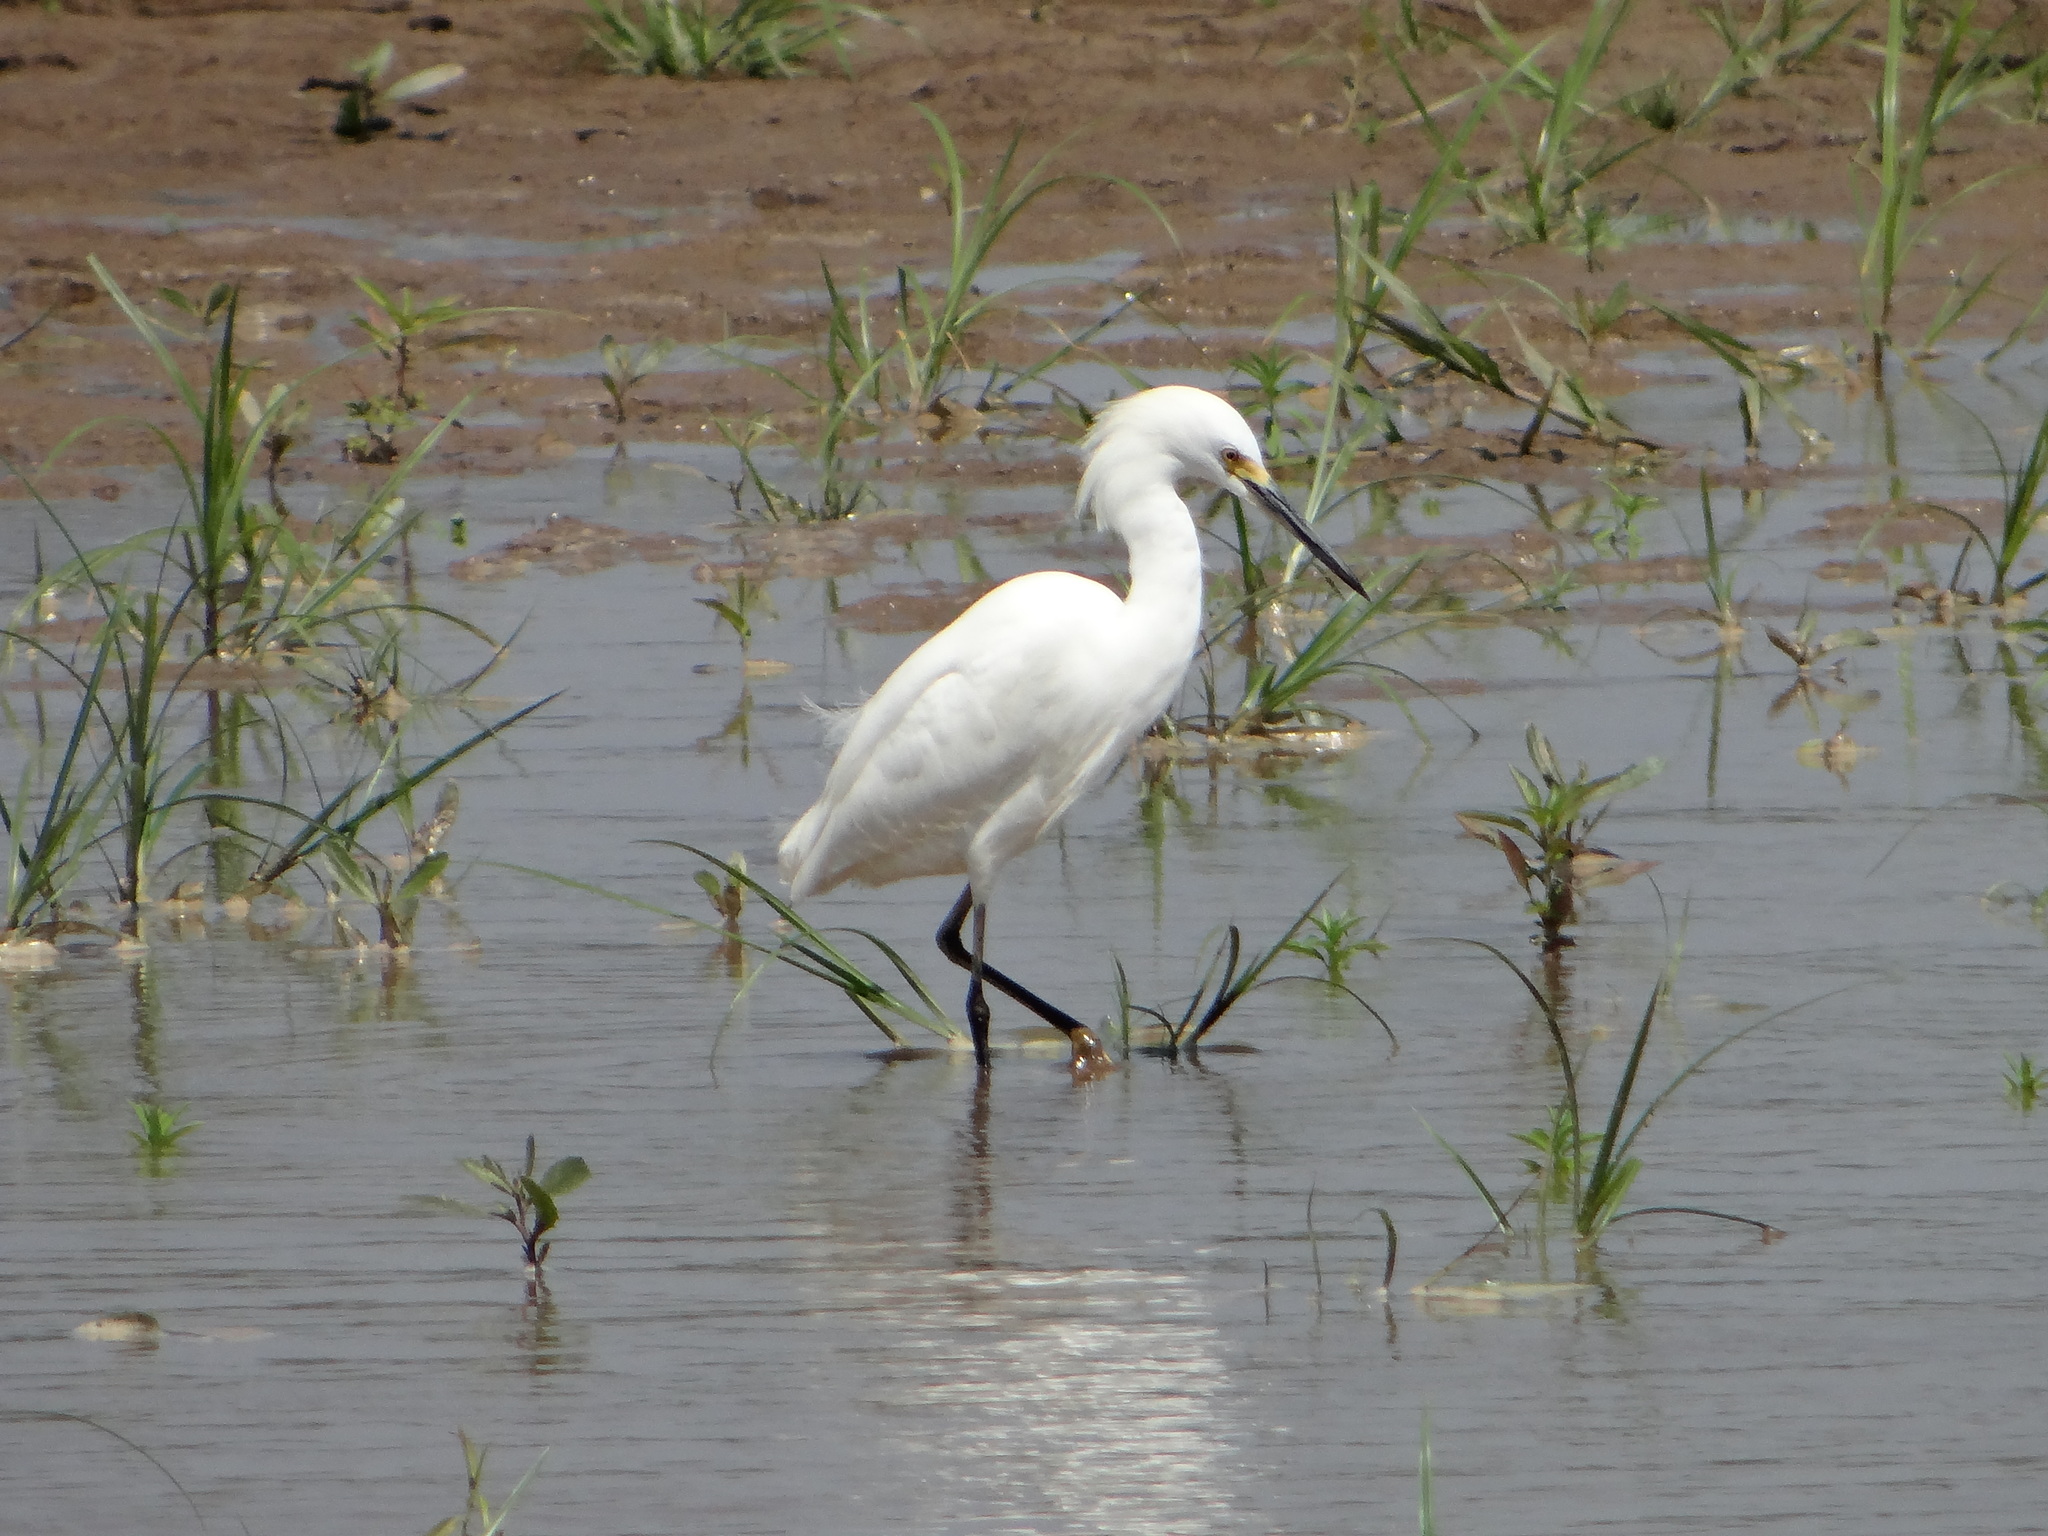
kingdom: Animalia
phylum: Chordata
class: Aves
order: Pelecaniformes
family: Ardeidae
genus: Egretta
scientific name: Egretta thula
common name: Snowy egret
